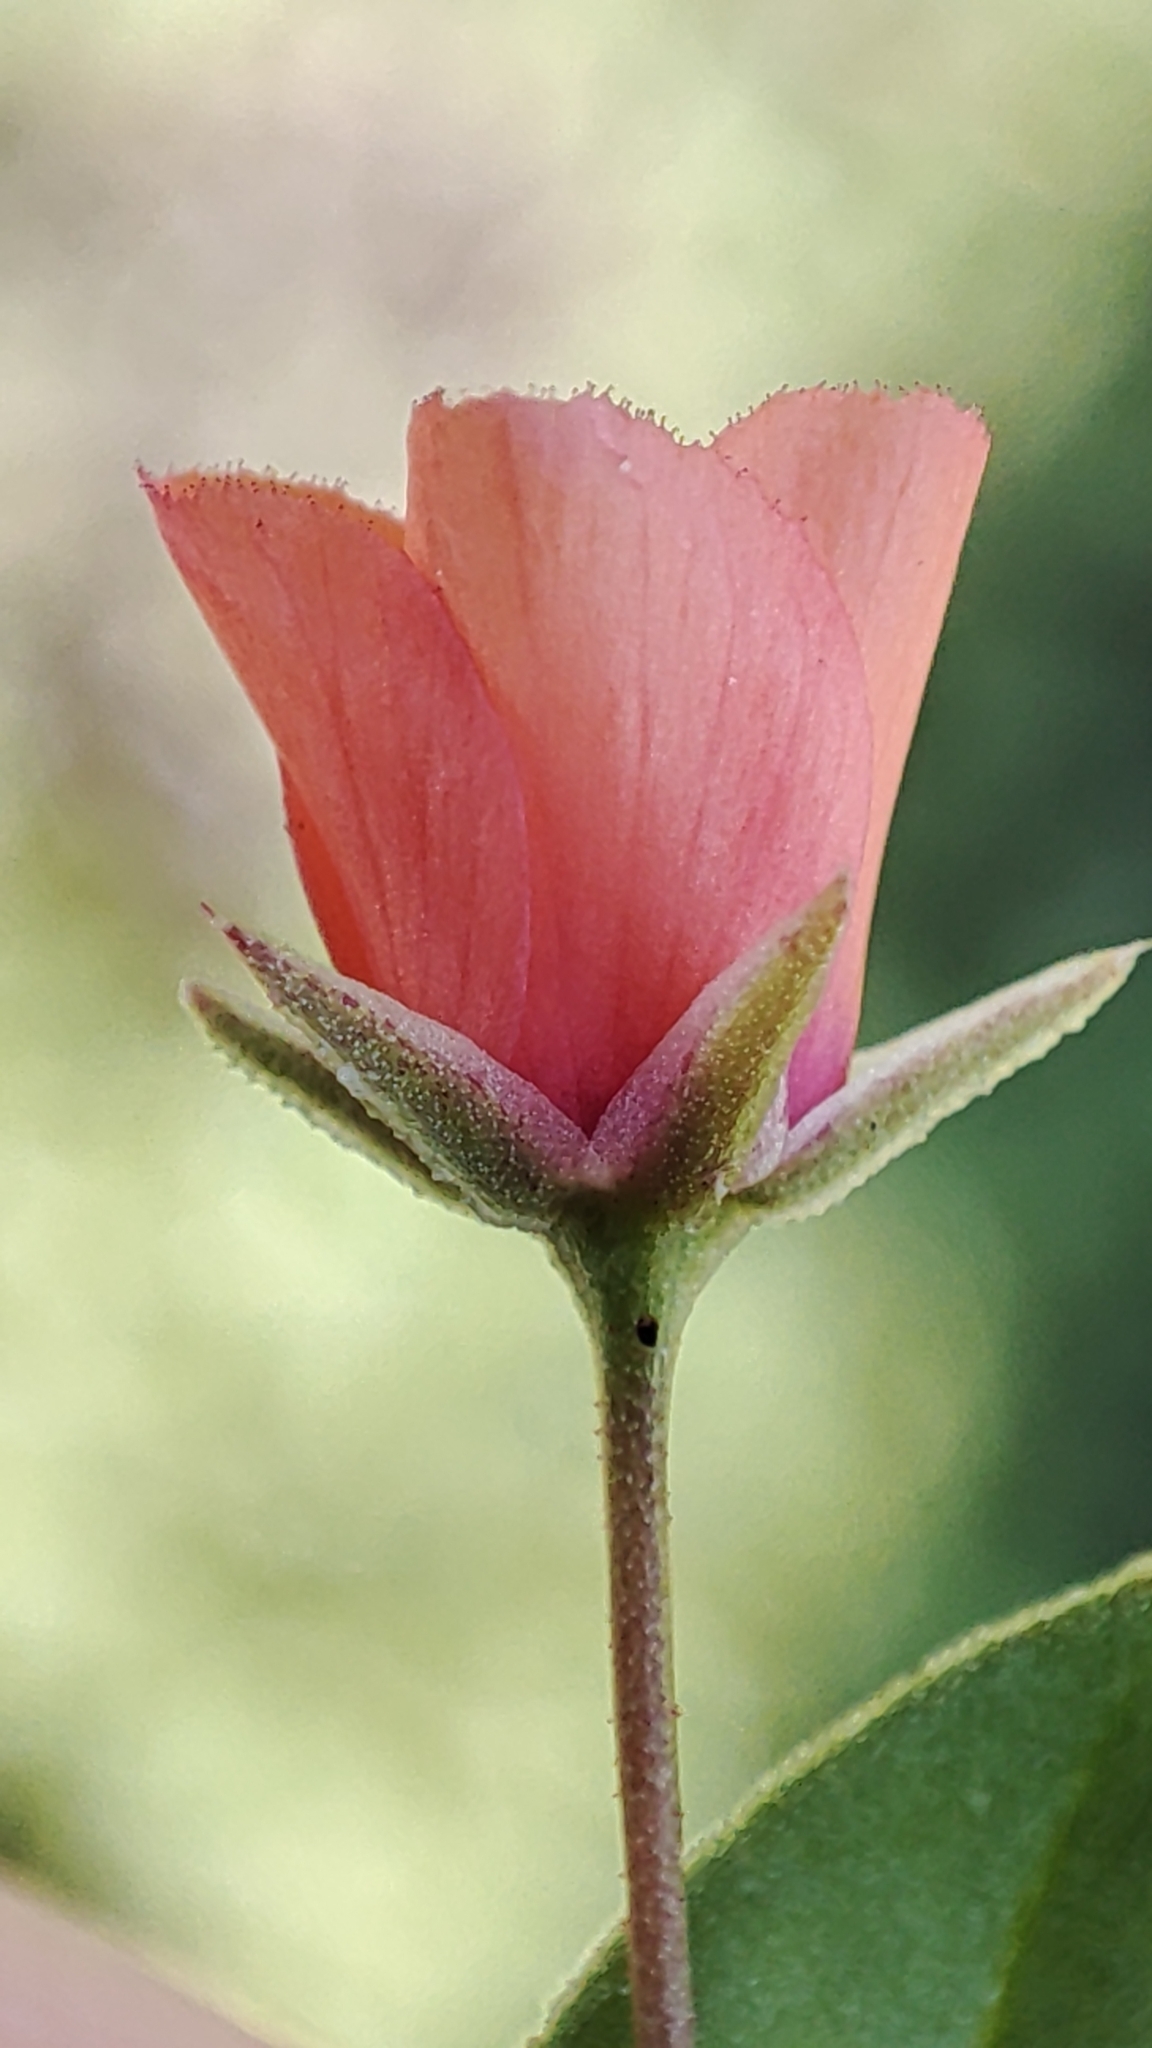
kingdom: Plantae
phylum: Tracheophyta
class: Magnoliopsida
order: Ericales
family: Primulaceae
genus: Lysimachia
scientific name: Lysimachia arvensis
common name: Scarlet pimpernel
